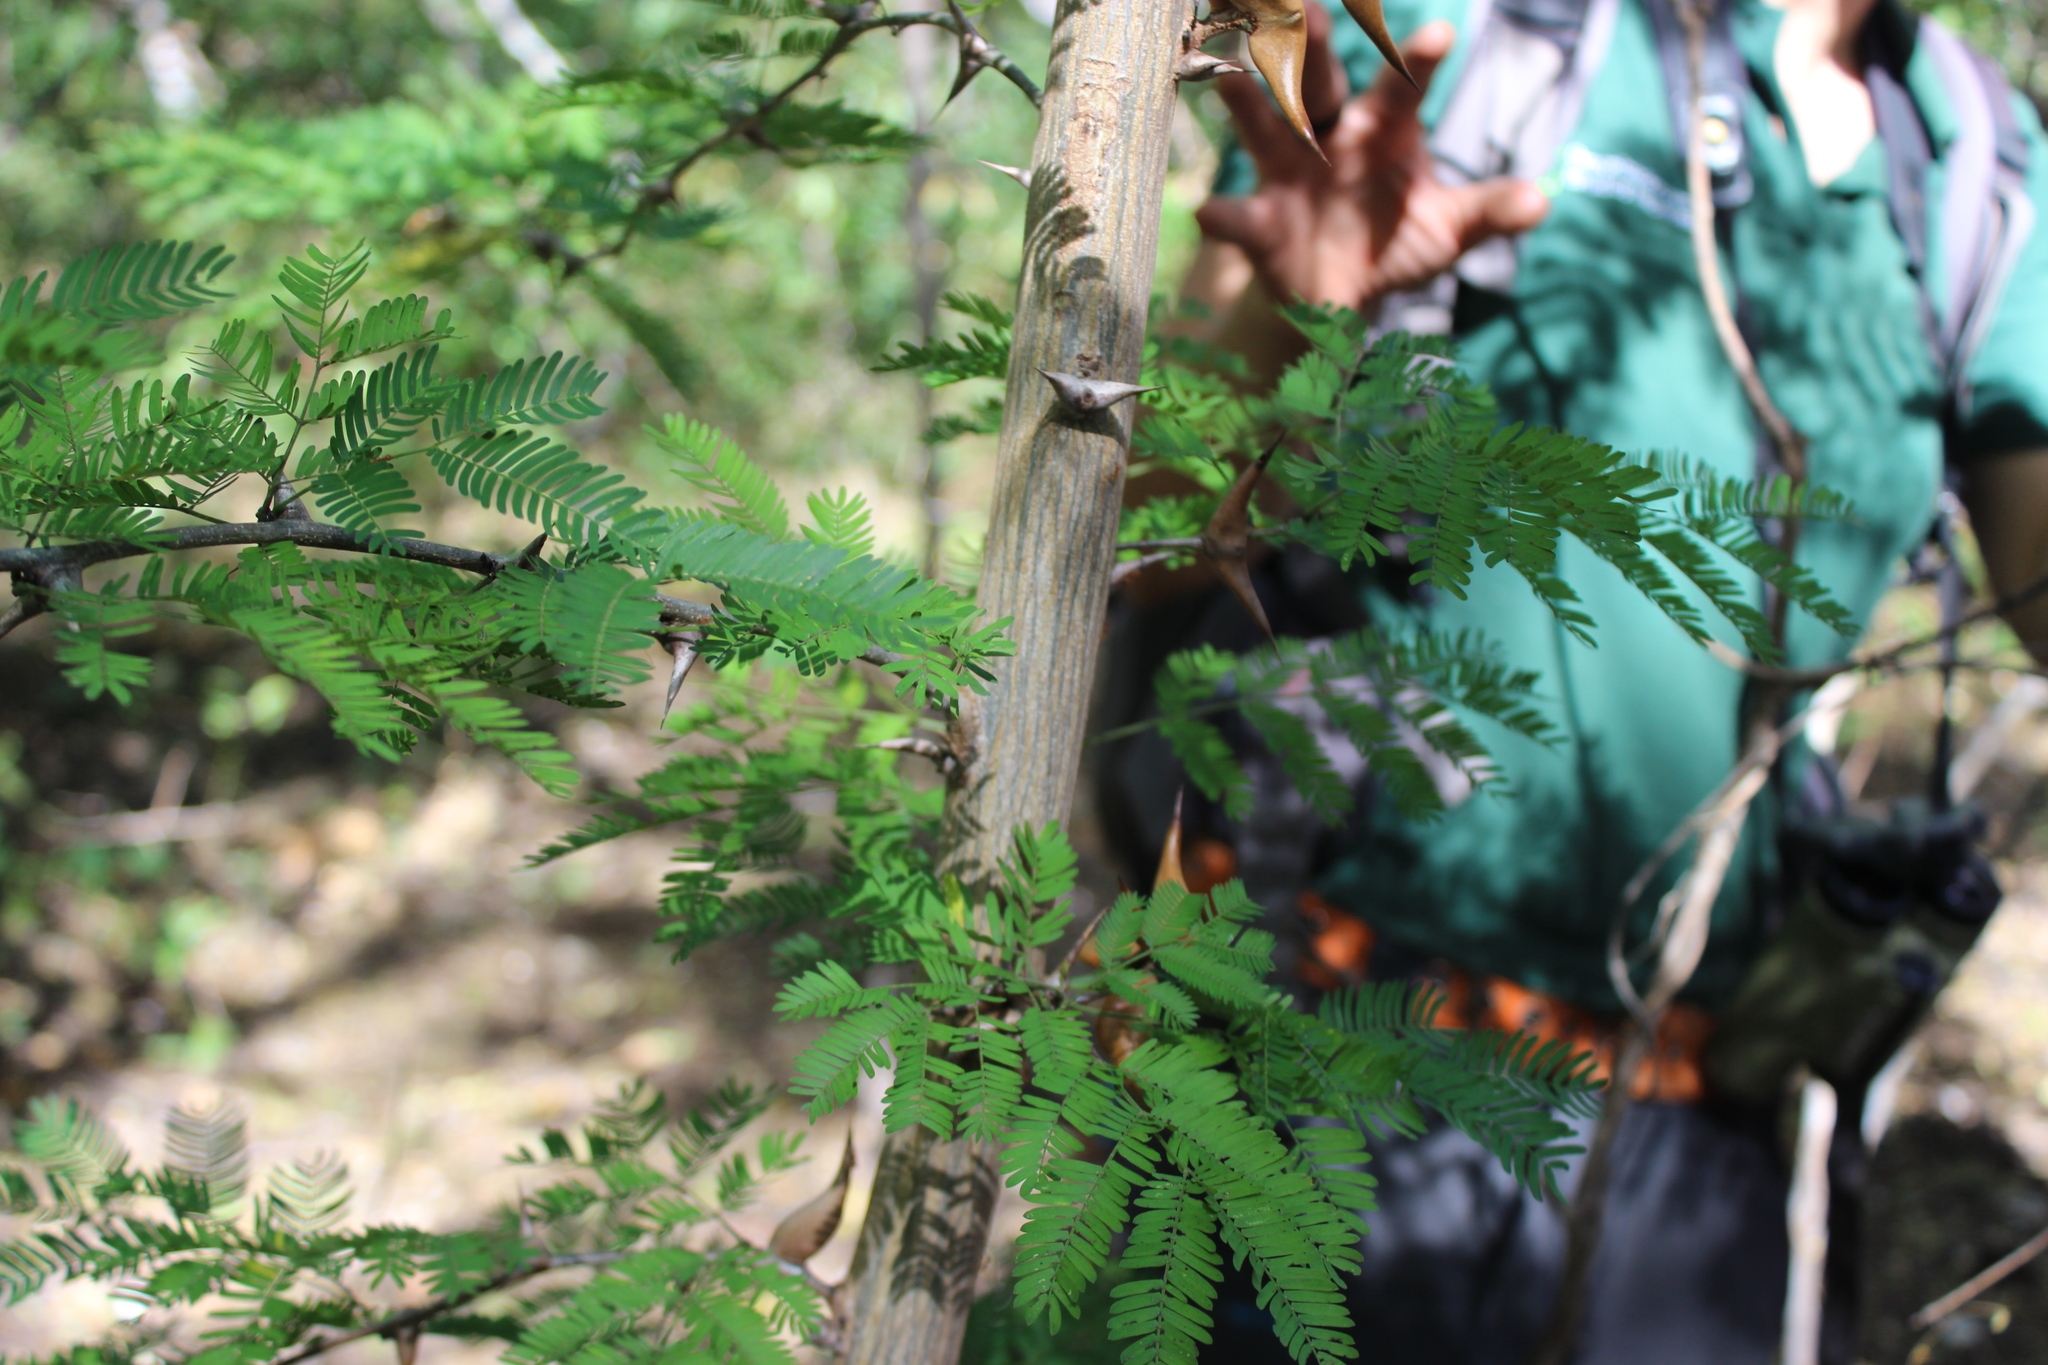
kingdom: Plantae
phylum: Tracheophyta
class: Magnoliopsida
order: Fabales
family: Fabaceae
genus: Vachellia
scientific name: Vachellia collinsii
